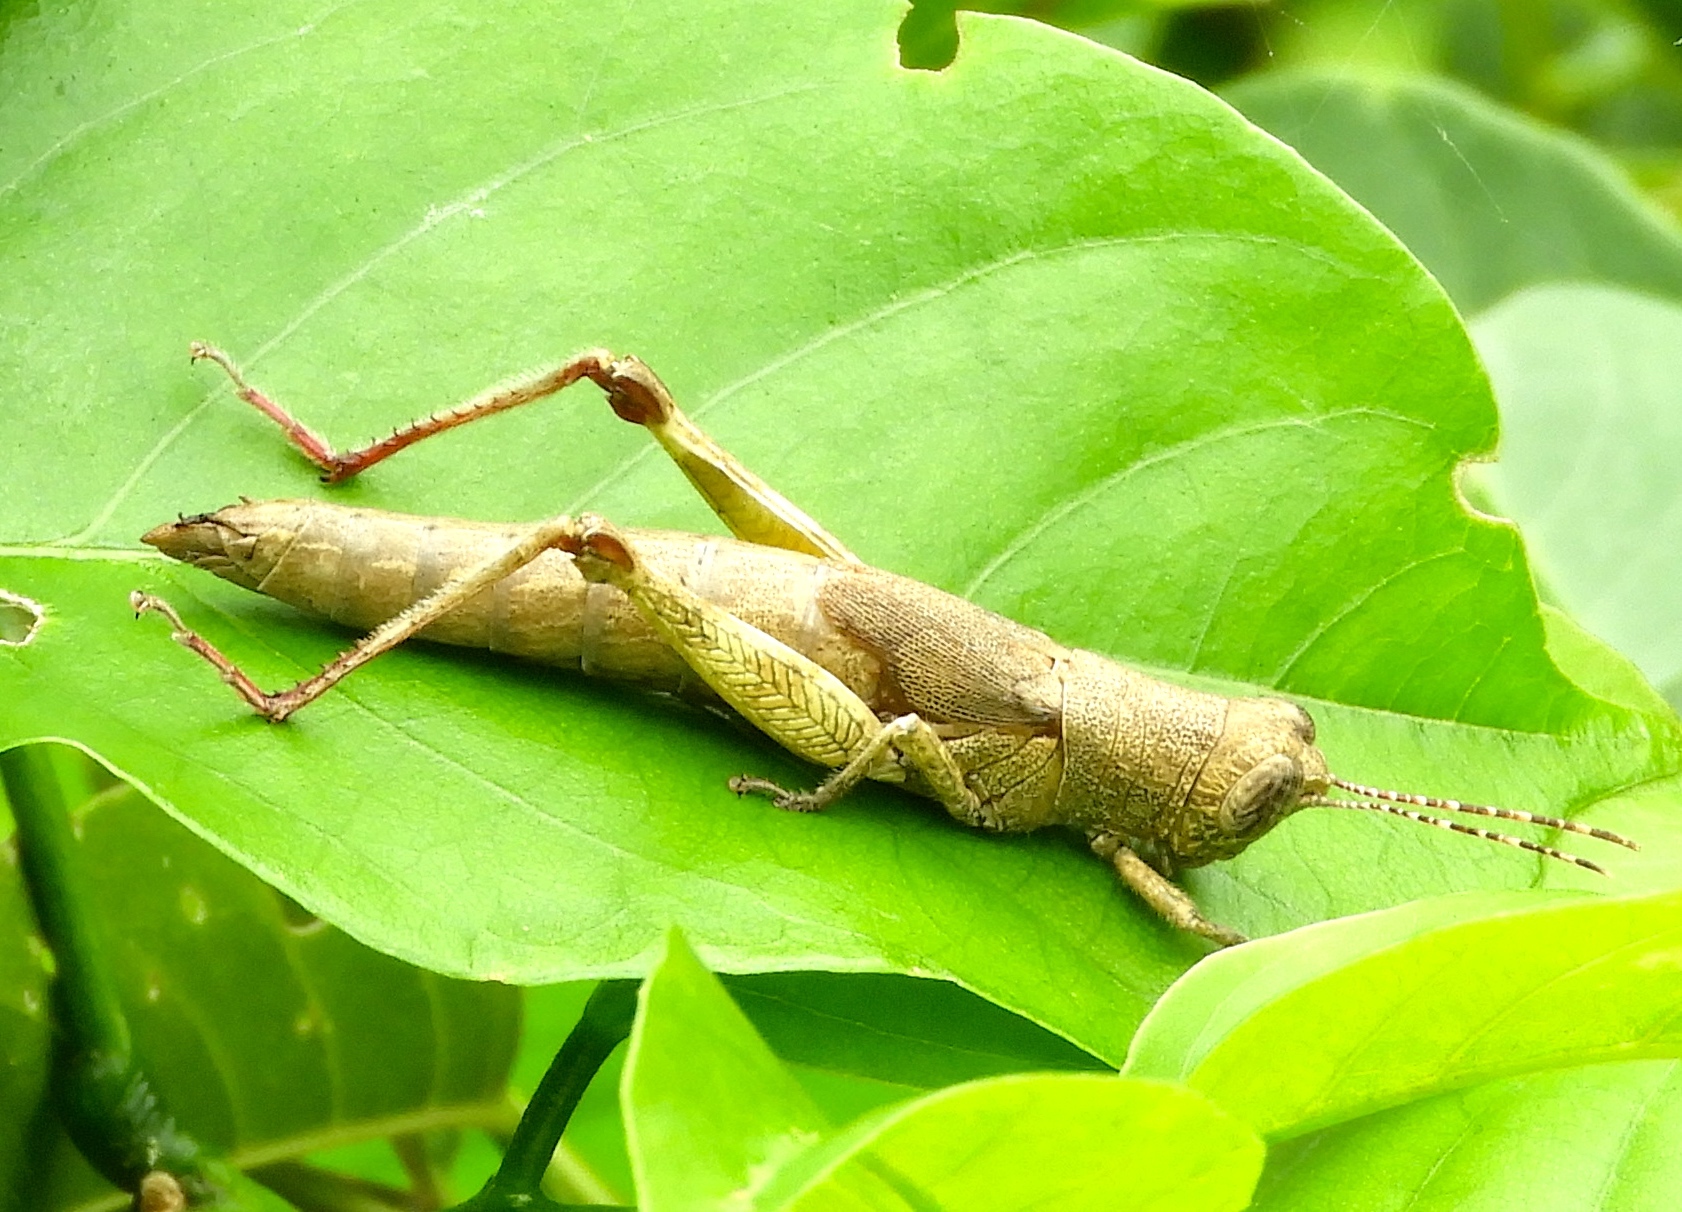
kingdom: Animalia
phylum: Arthropoda
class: Insecta
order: Orthoptera
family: Acrididae
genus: Proctolabus
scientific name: Proctolabus cerciatus
